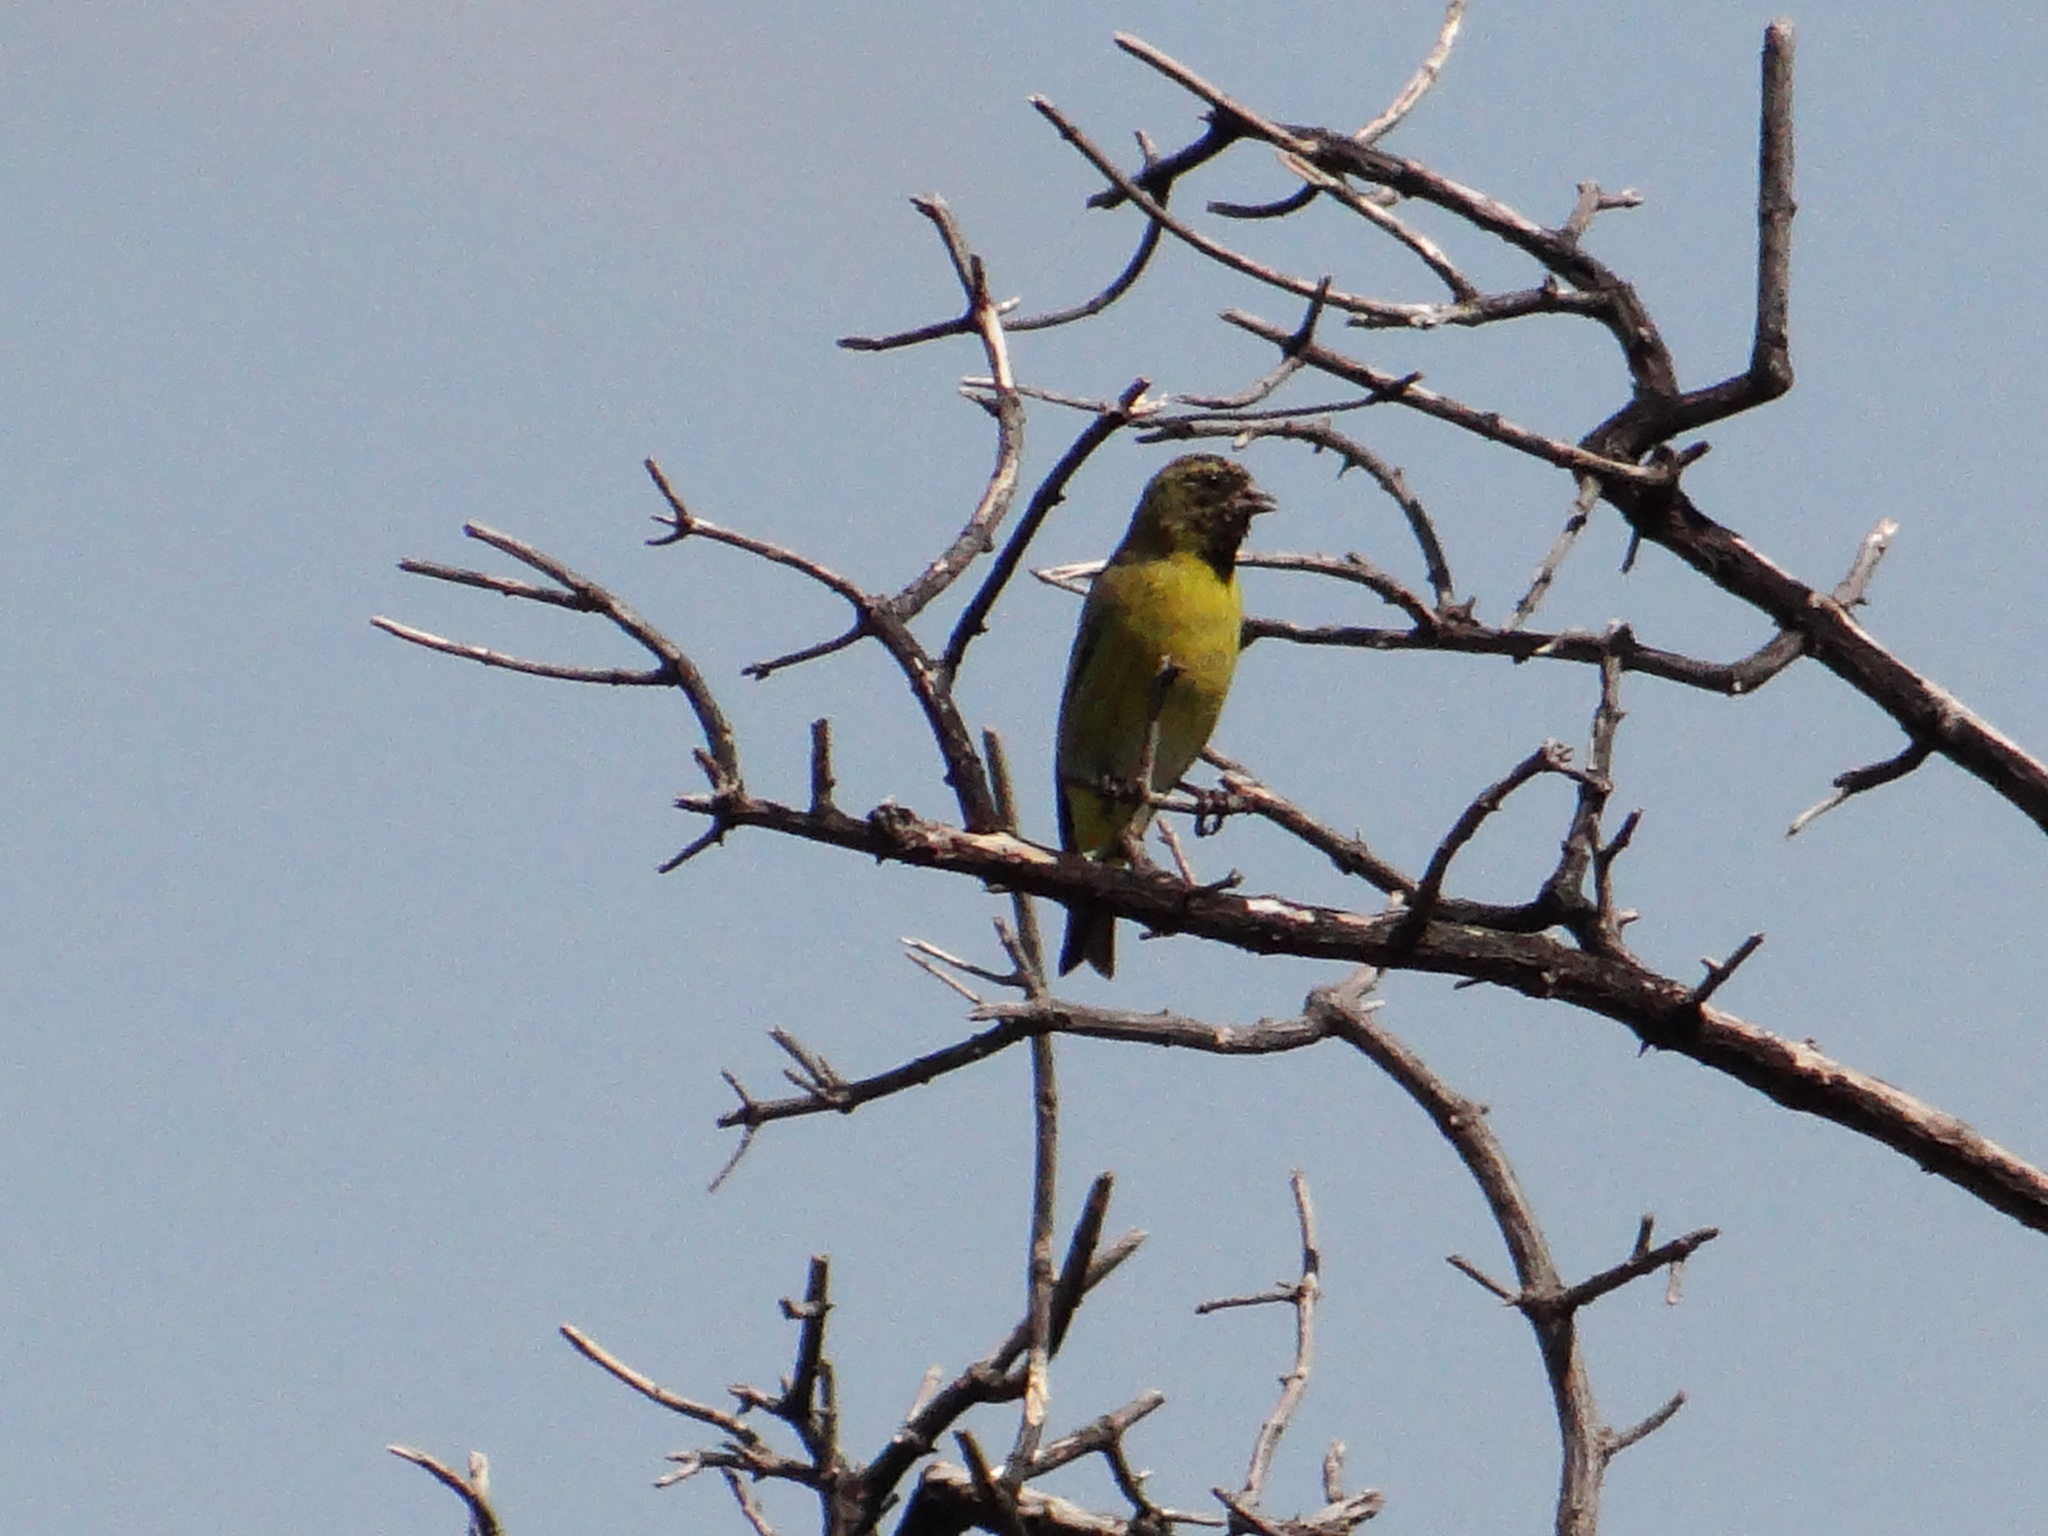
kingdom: Animalia
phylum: Chordata
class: Aves
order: Passeriformes
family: Fringillidae
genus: Spinus
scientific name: Spinus magellanicus
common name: Hooded siskin
